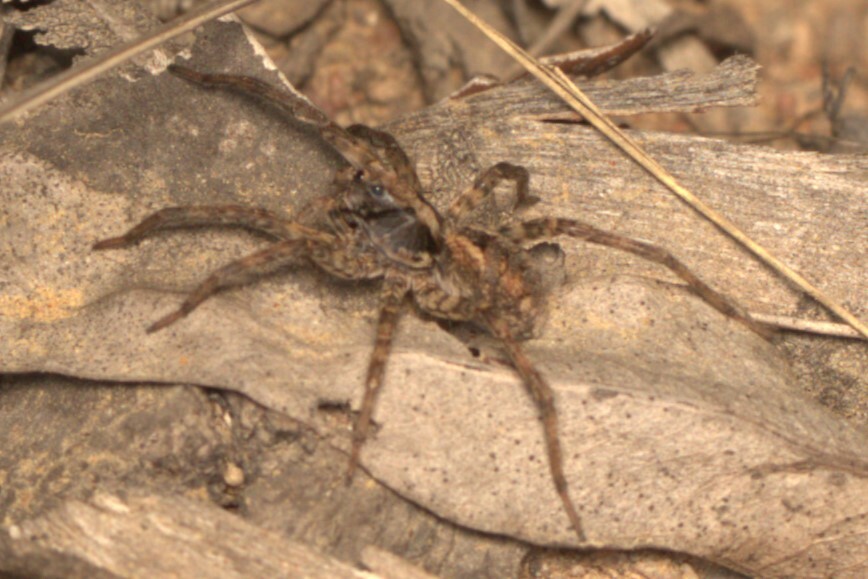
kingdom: Animalia
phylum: Arthropoda
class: Arachnida
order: Araneae
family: Lycosidae
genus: Venator
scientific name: Venator spenceri
